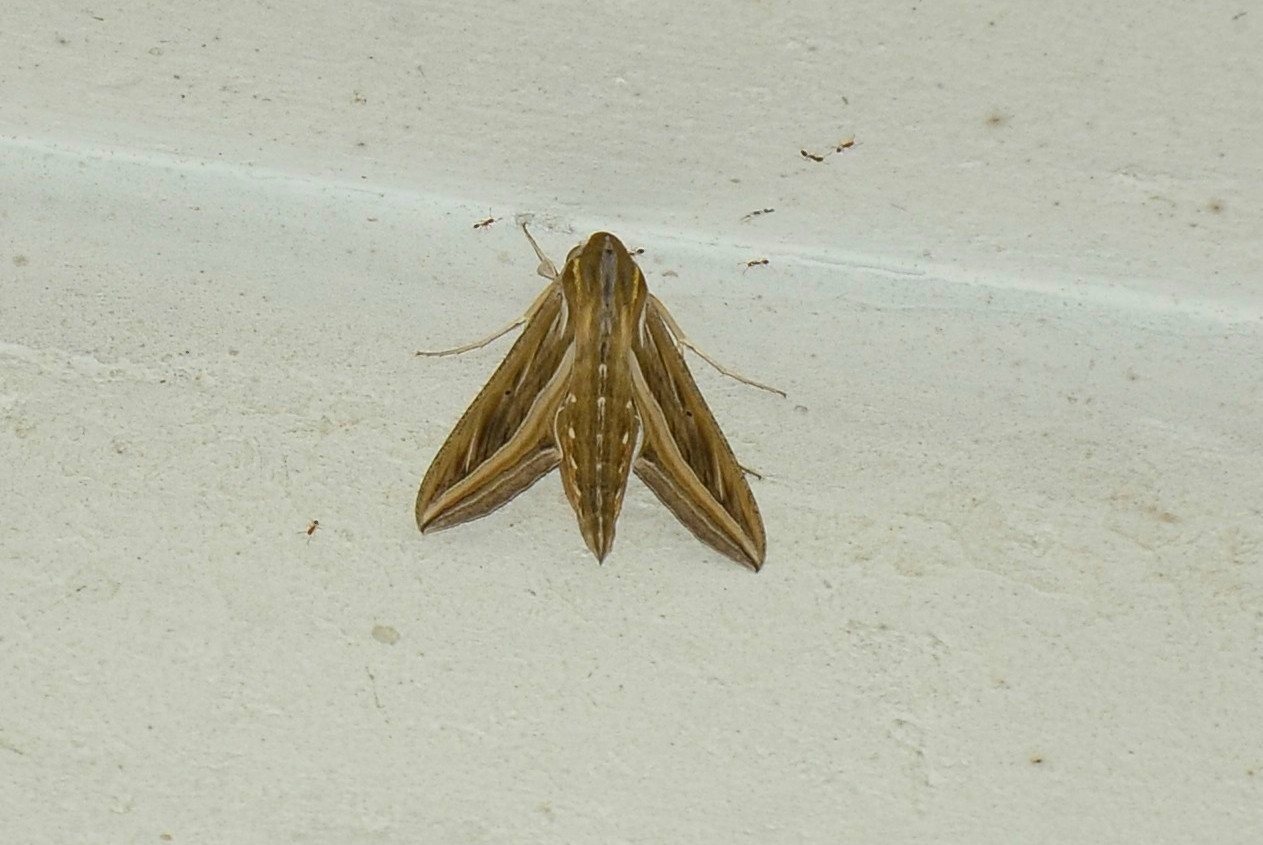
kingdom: Animalia
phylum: Arthropoda
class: Insecta
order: Lepidoptera
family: Sphingidae
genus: Hippotion
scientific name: Hippotion celerio
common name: Silver-striped hawk-moth
